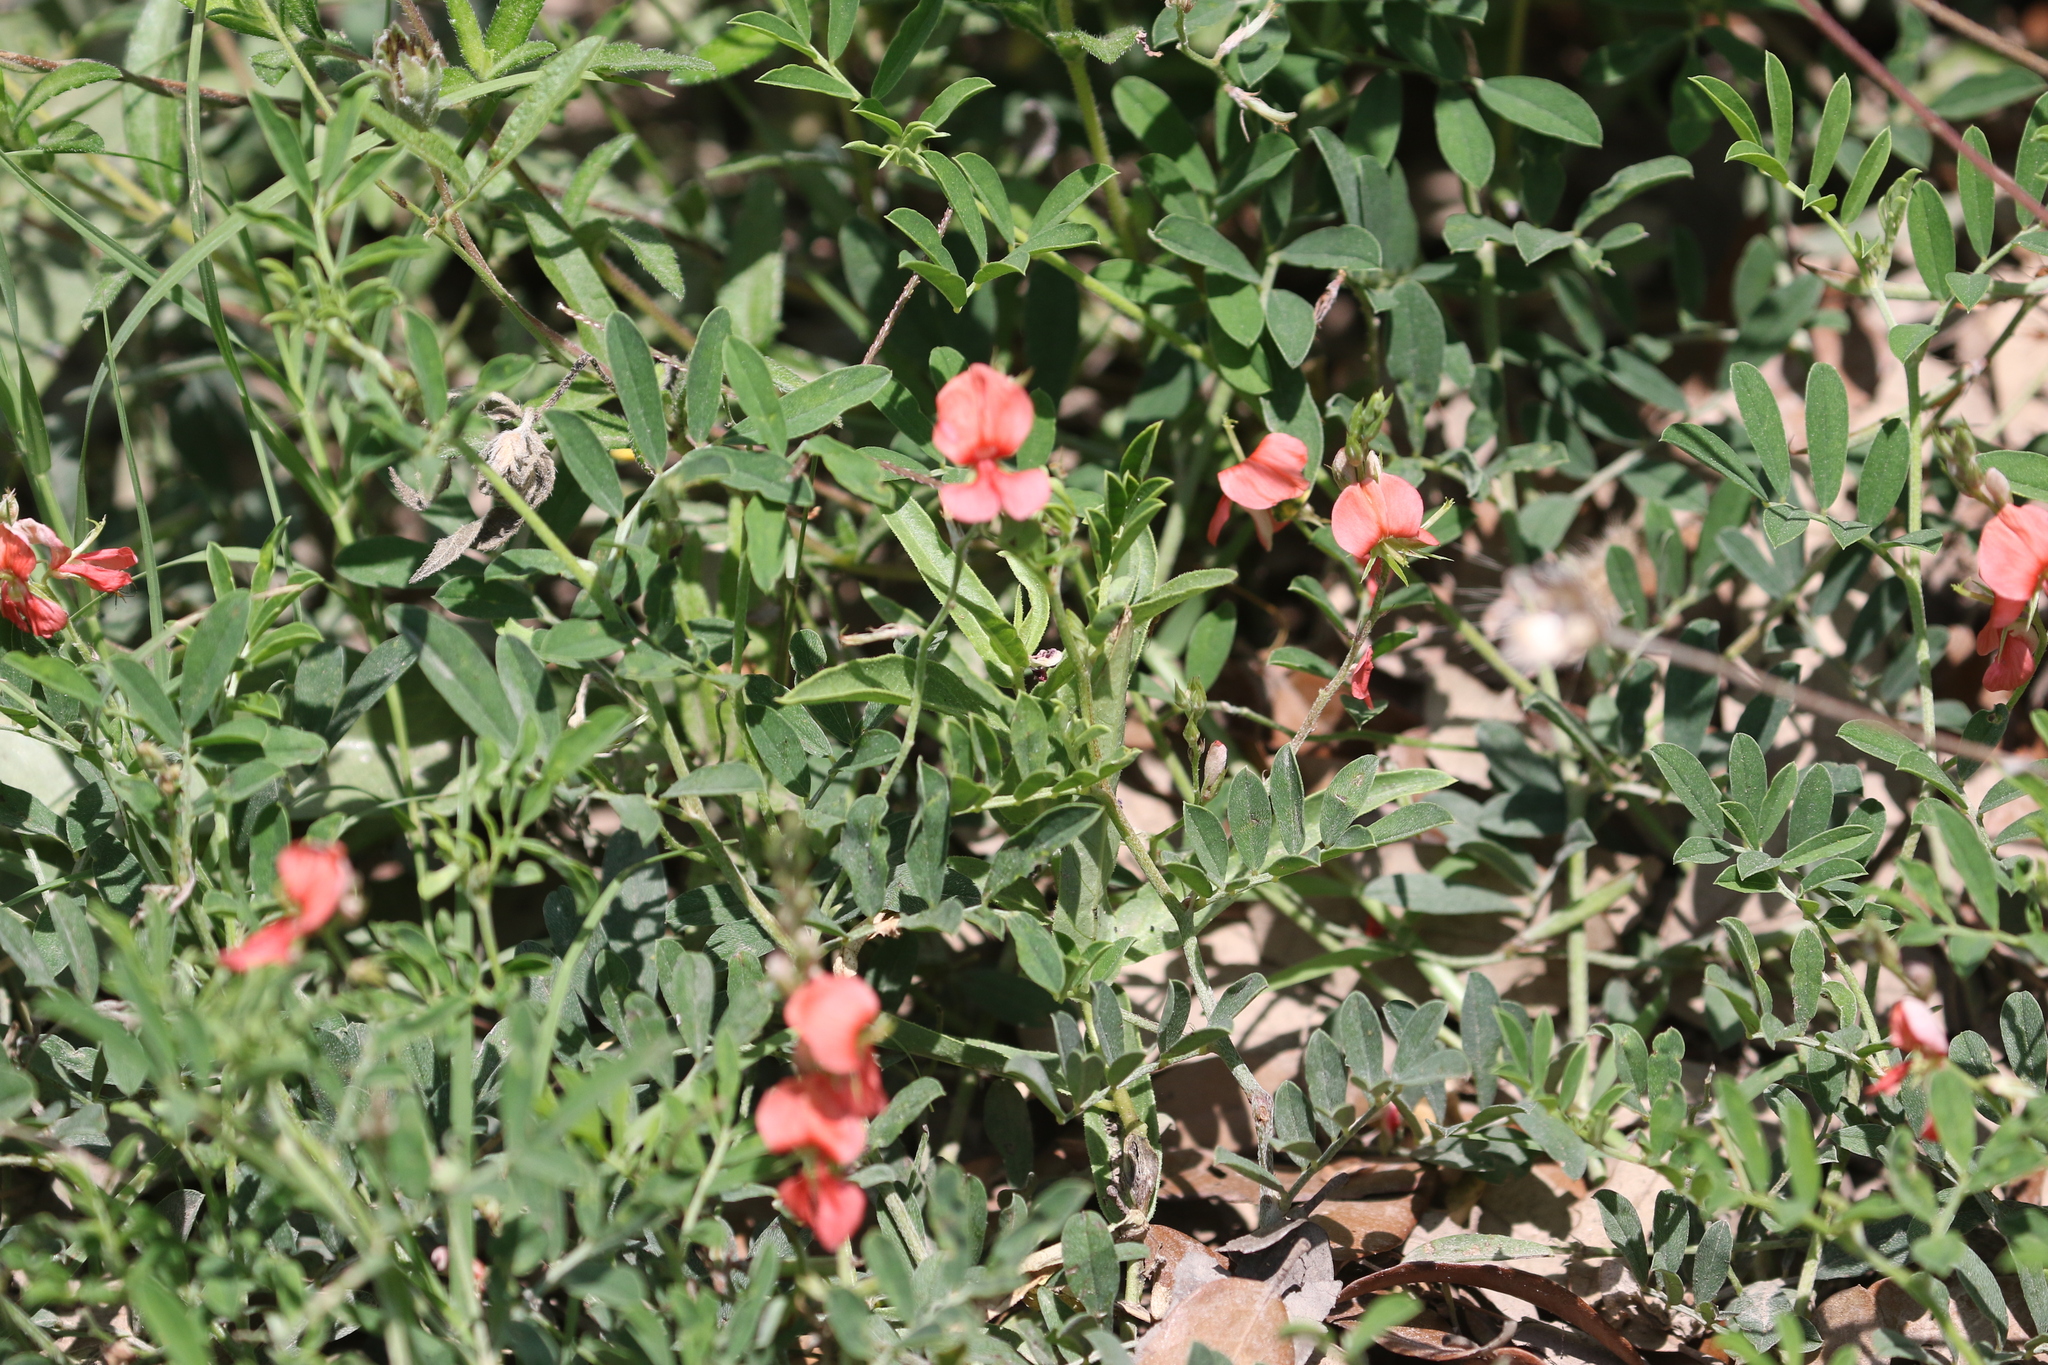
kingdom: Plantae
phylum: Tracheophyta
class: Magnoliopsida
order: Fabales
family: Fabaceae
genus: Indigofera
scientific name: Indigofera miniata
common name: Coast indigo
